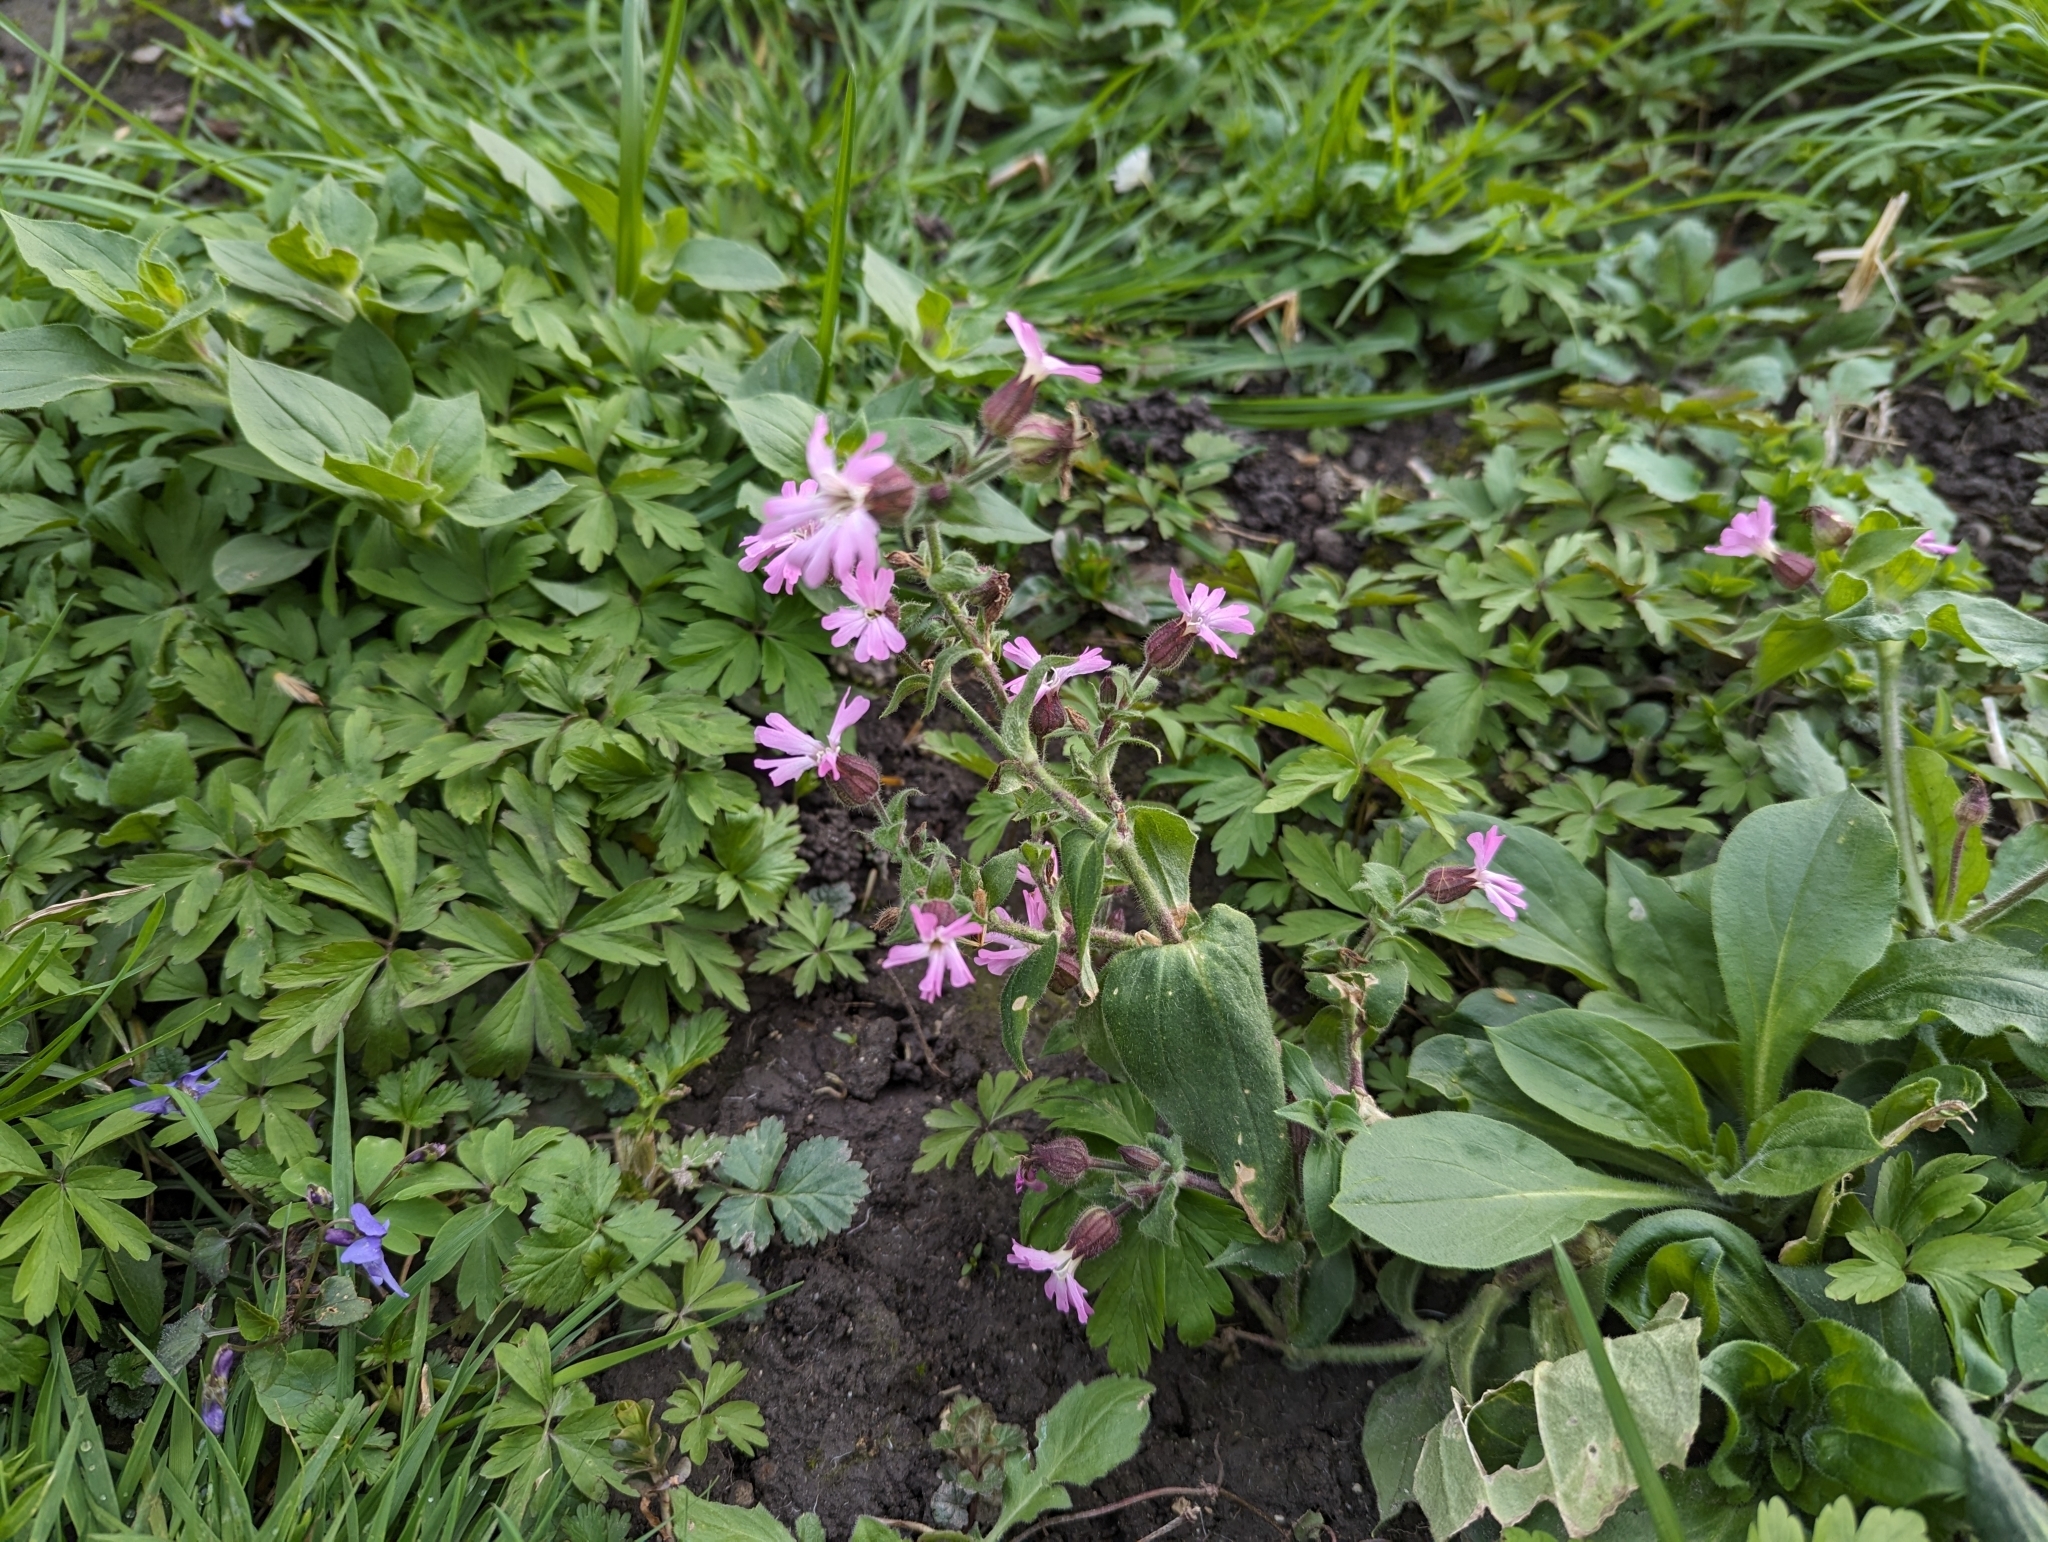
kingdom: Plantae
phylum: Tracheophyta
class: Magnoliopsida
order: Caryophyllales
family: Caryophyllaceae
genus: Silene
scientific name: Silene dioica
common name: Red campion
